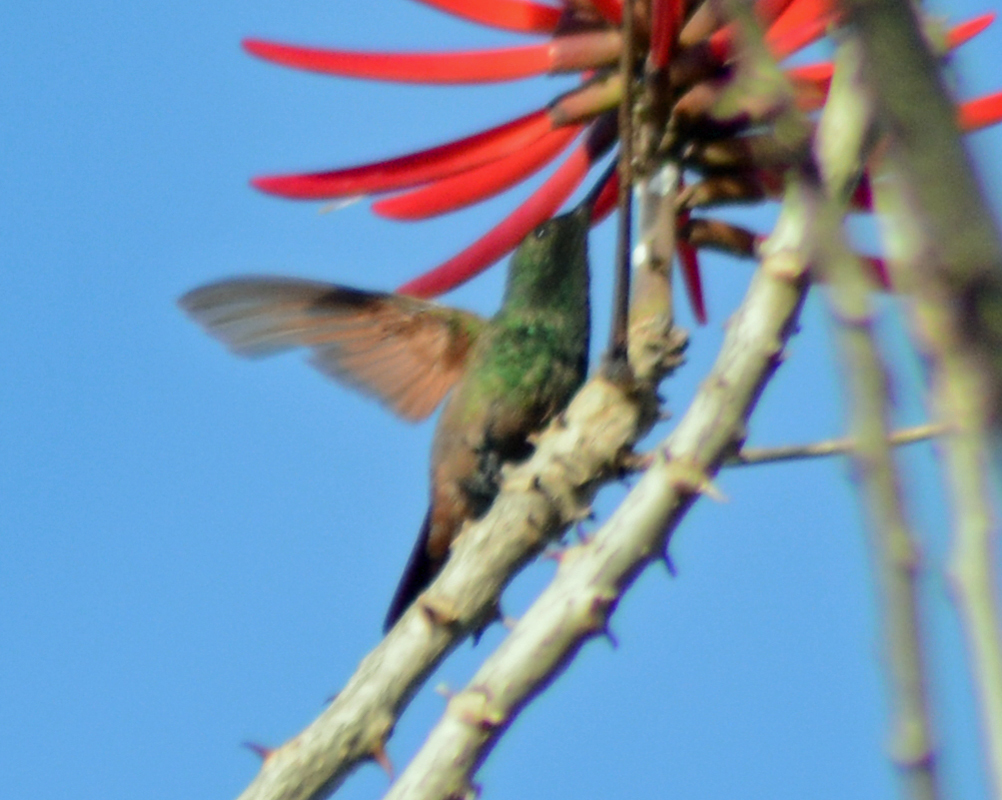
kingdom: Animalia
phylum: Chordata
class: Aves
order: Apodiformes
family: Trochilidae
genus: Saucerottia
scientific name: Saucerottia beryllina
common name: Berylline hummingbird
